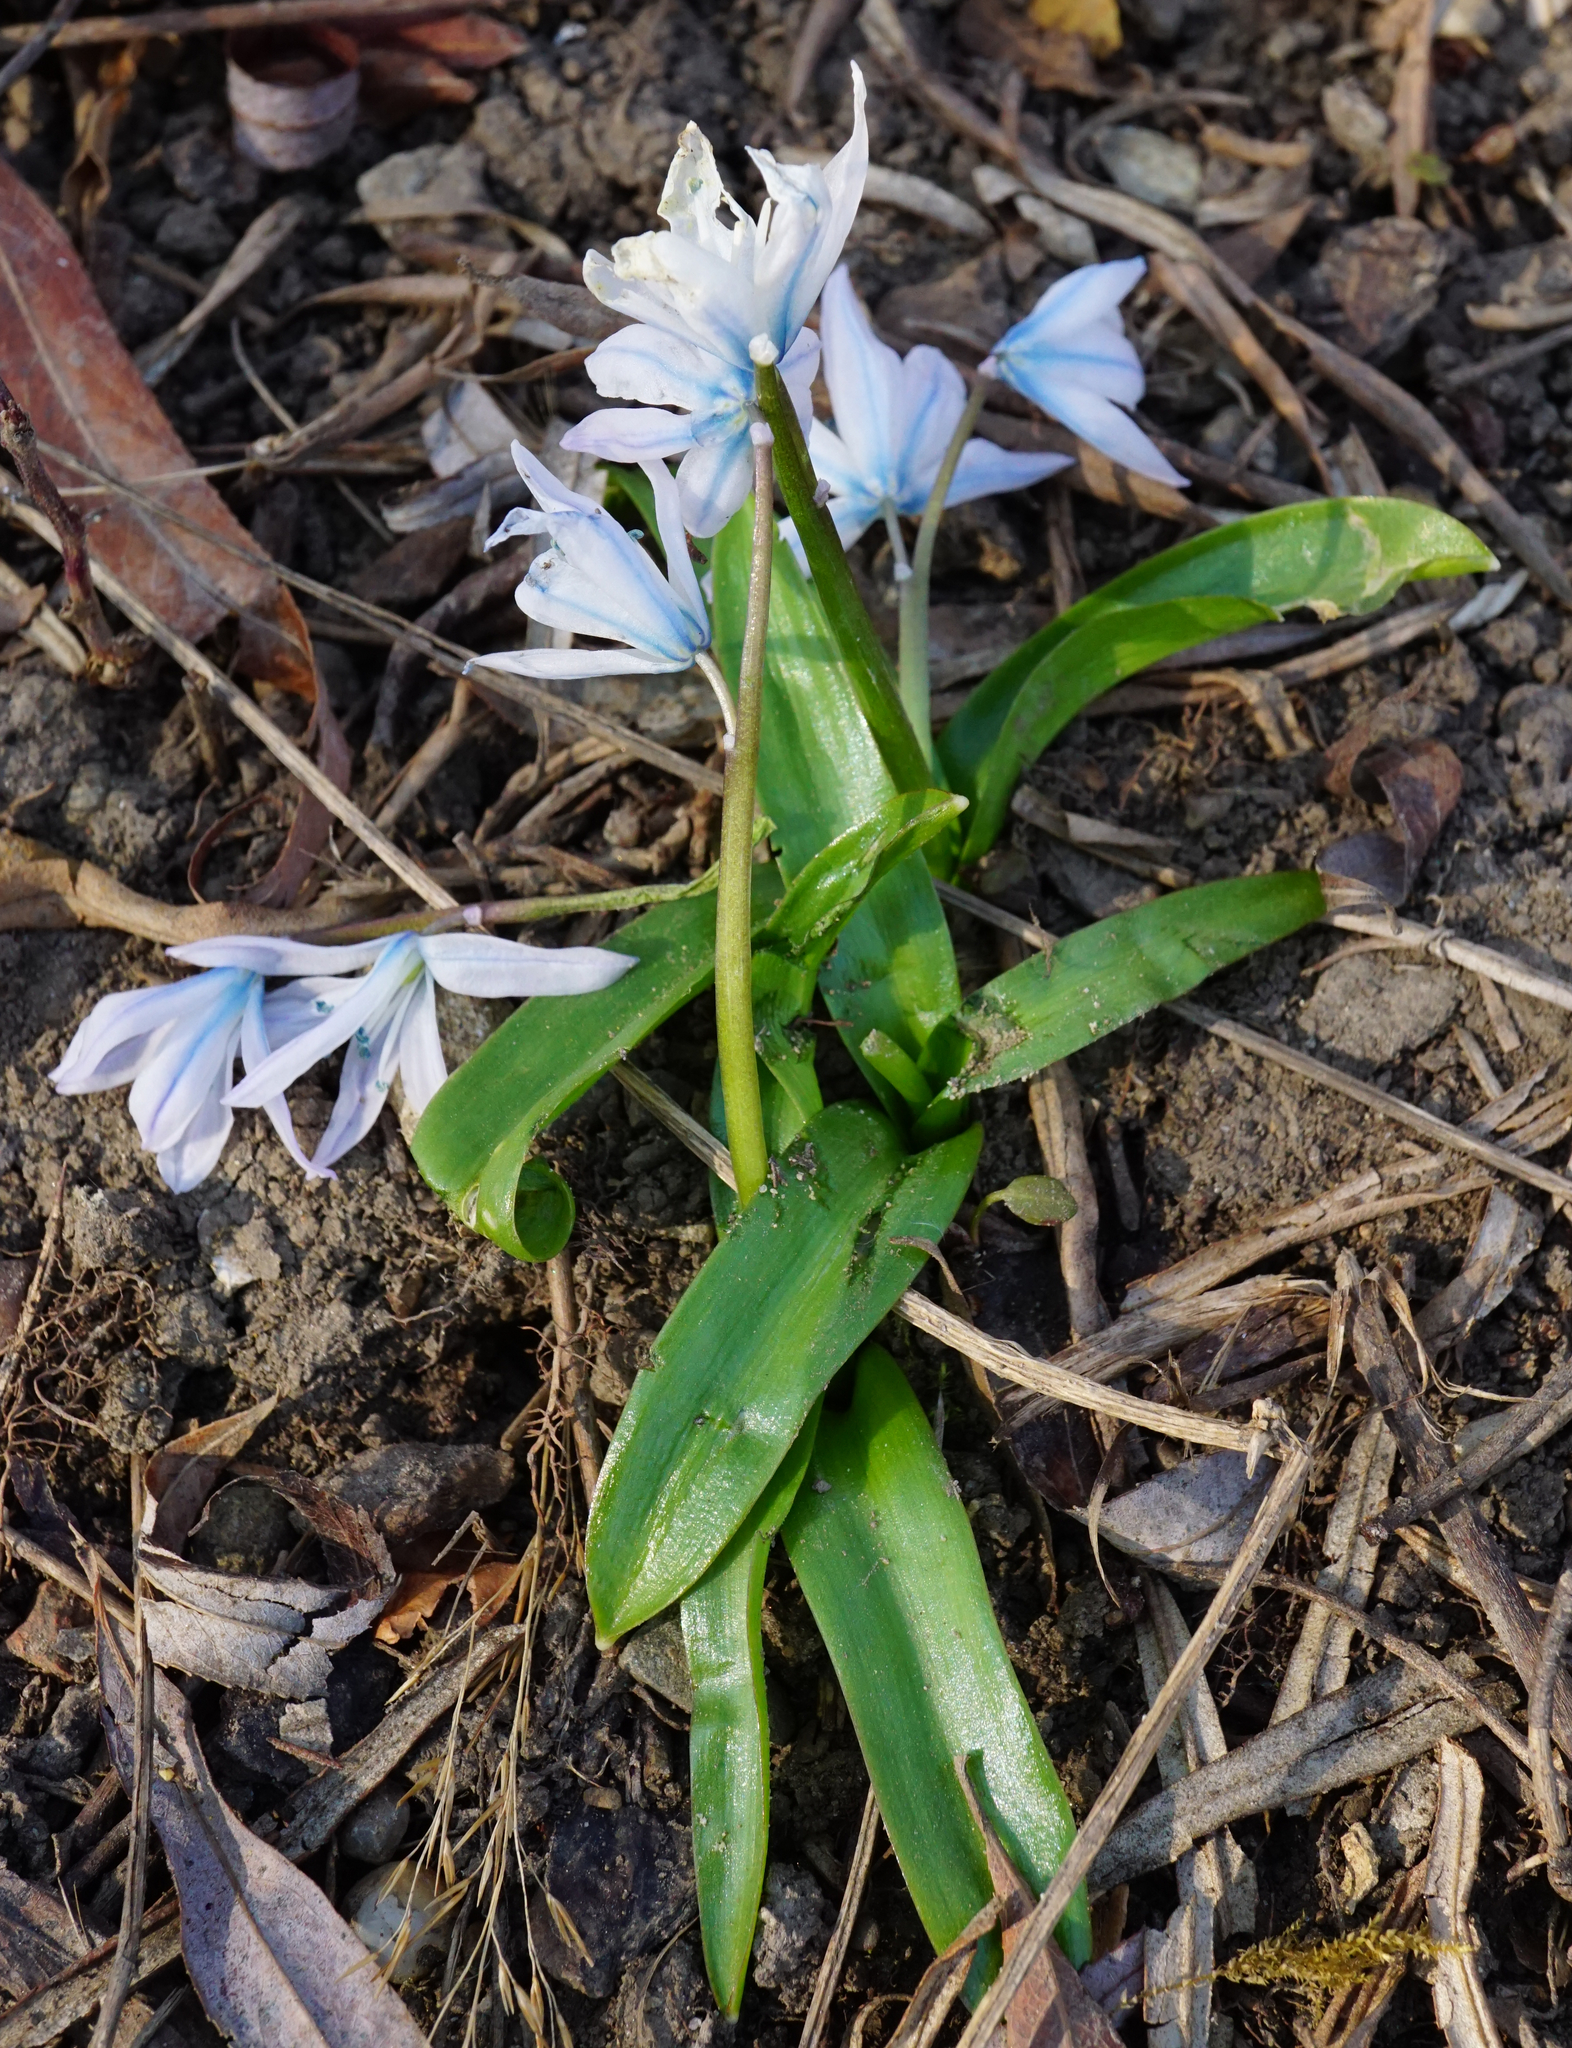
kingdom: Plantae
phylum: Tracheophyta
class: Liliopsida
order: Asparagales
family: Asparagaceae
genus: Scilla
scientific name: Scilla mischtschenkoana
